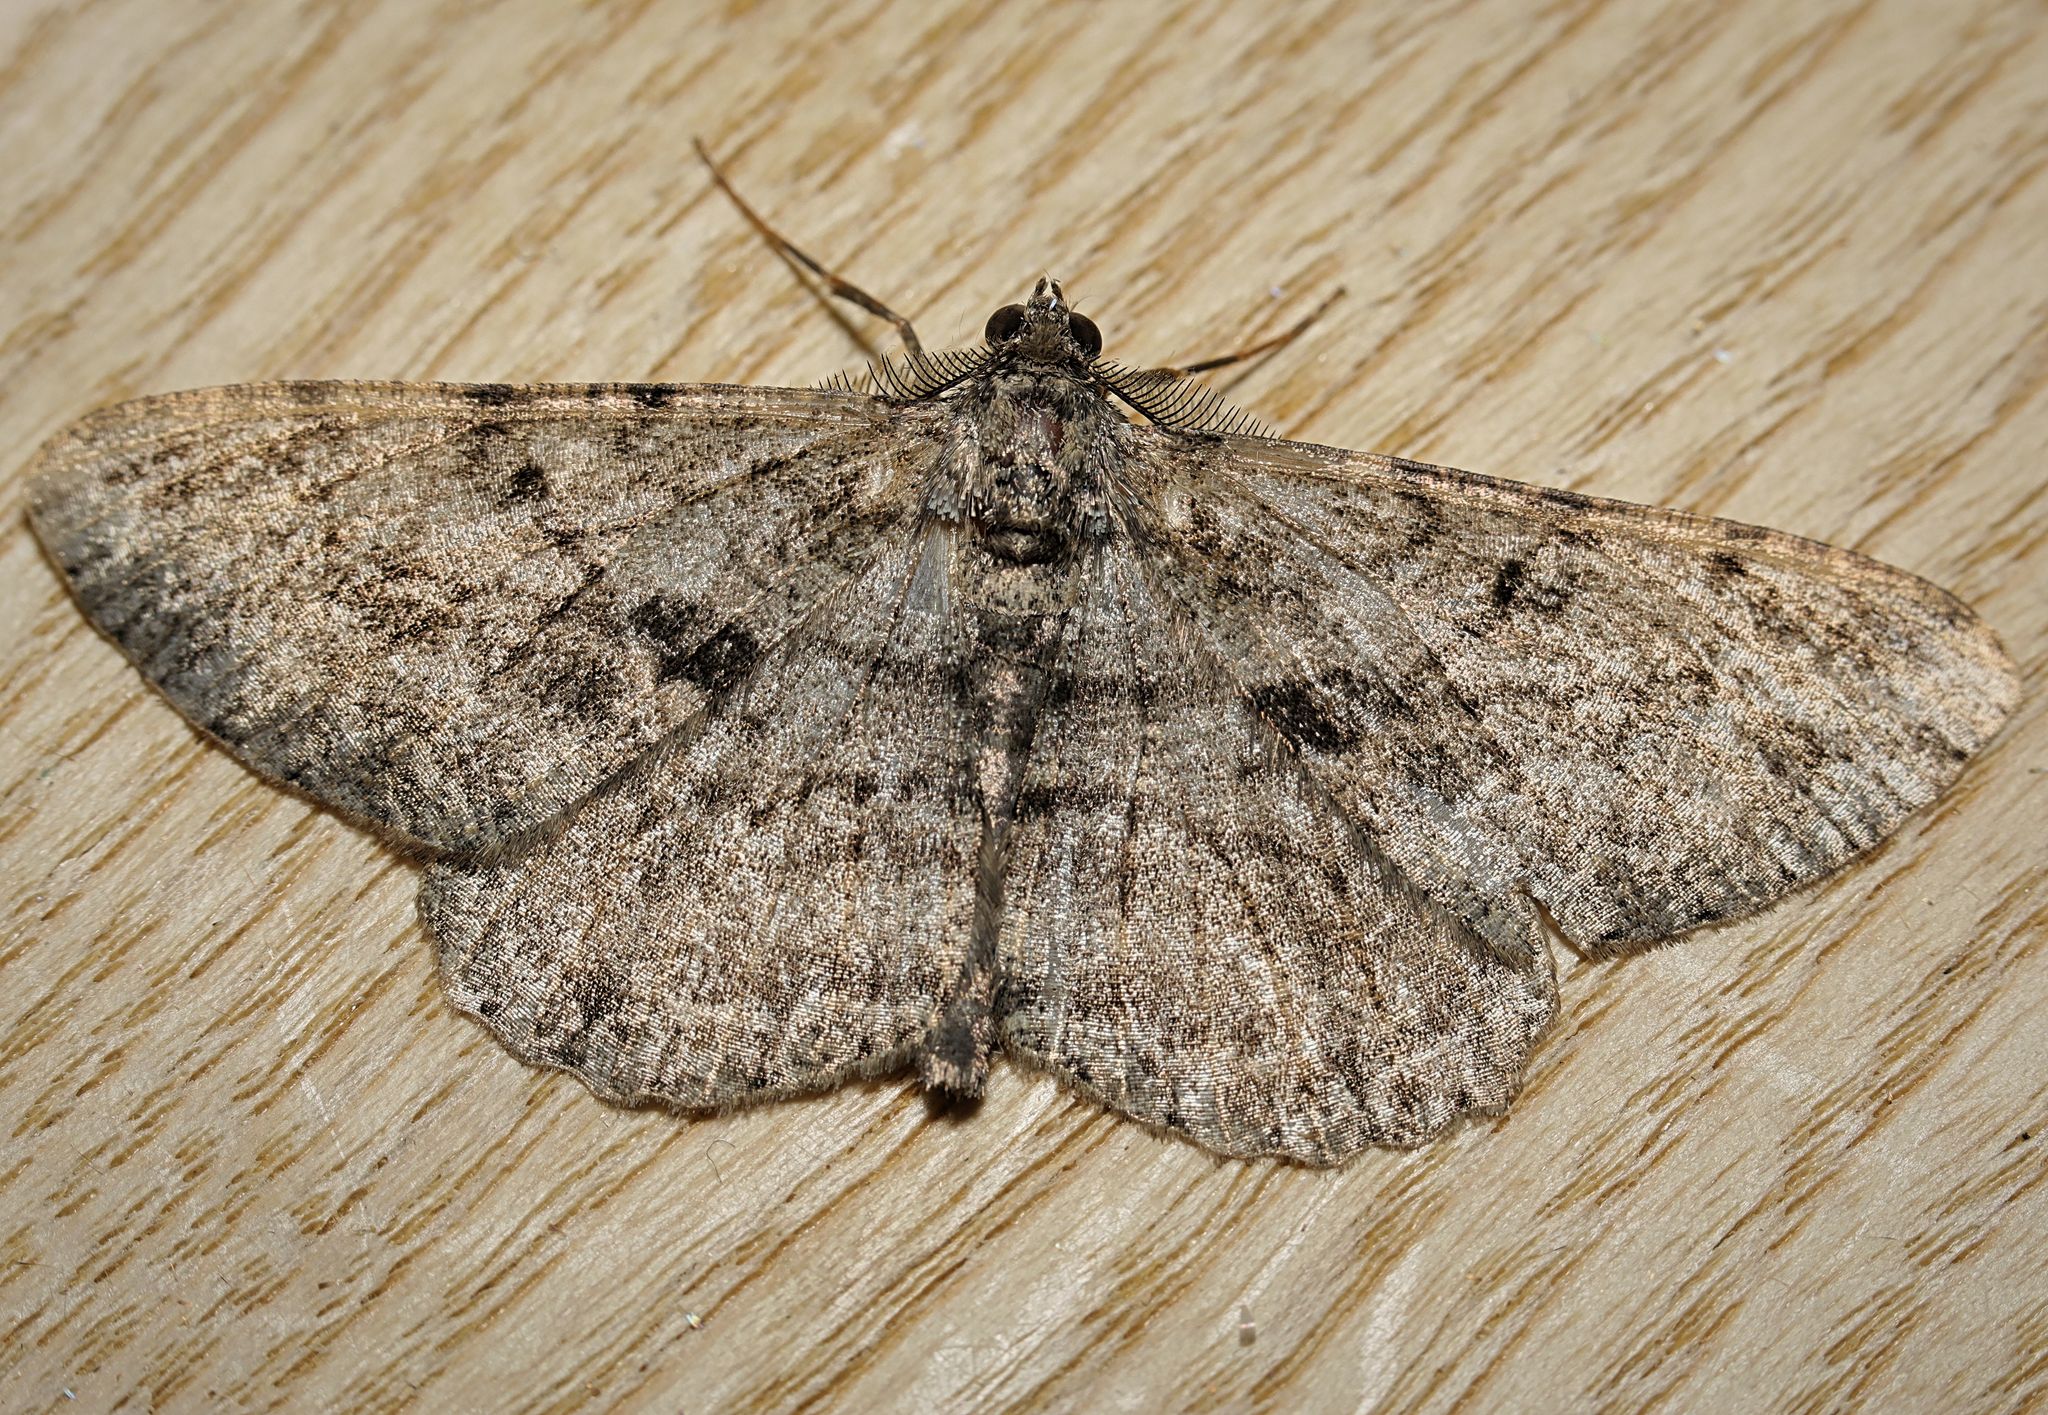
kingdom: Animalia
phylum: Arthropoda
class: Insecta
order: Lepidoptera
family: Geometridae
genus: Peribatodes
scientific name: Peribatodes rhomboidaria
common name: Willow beauty
